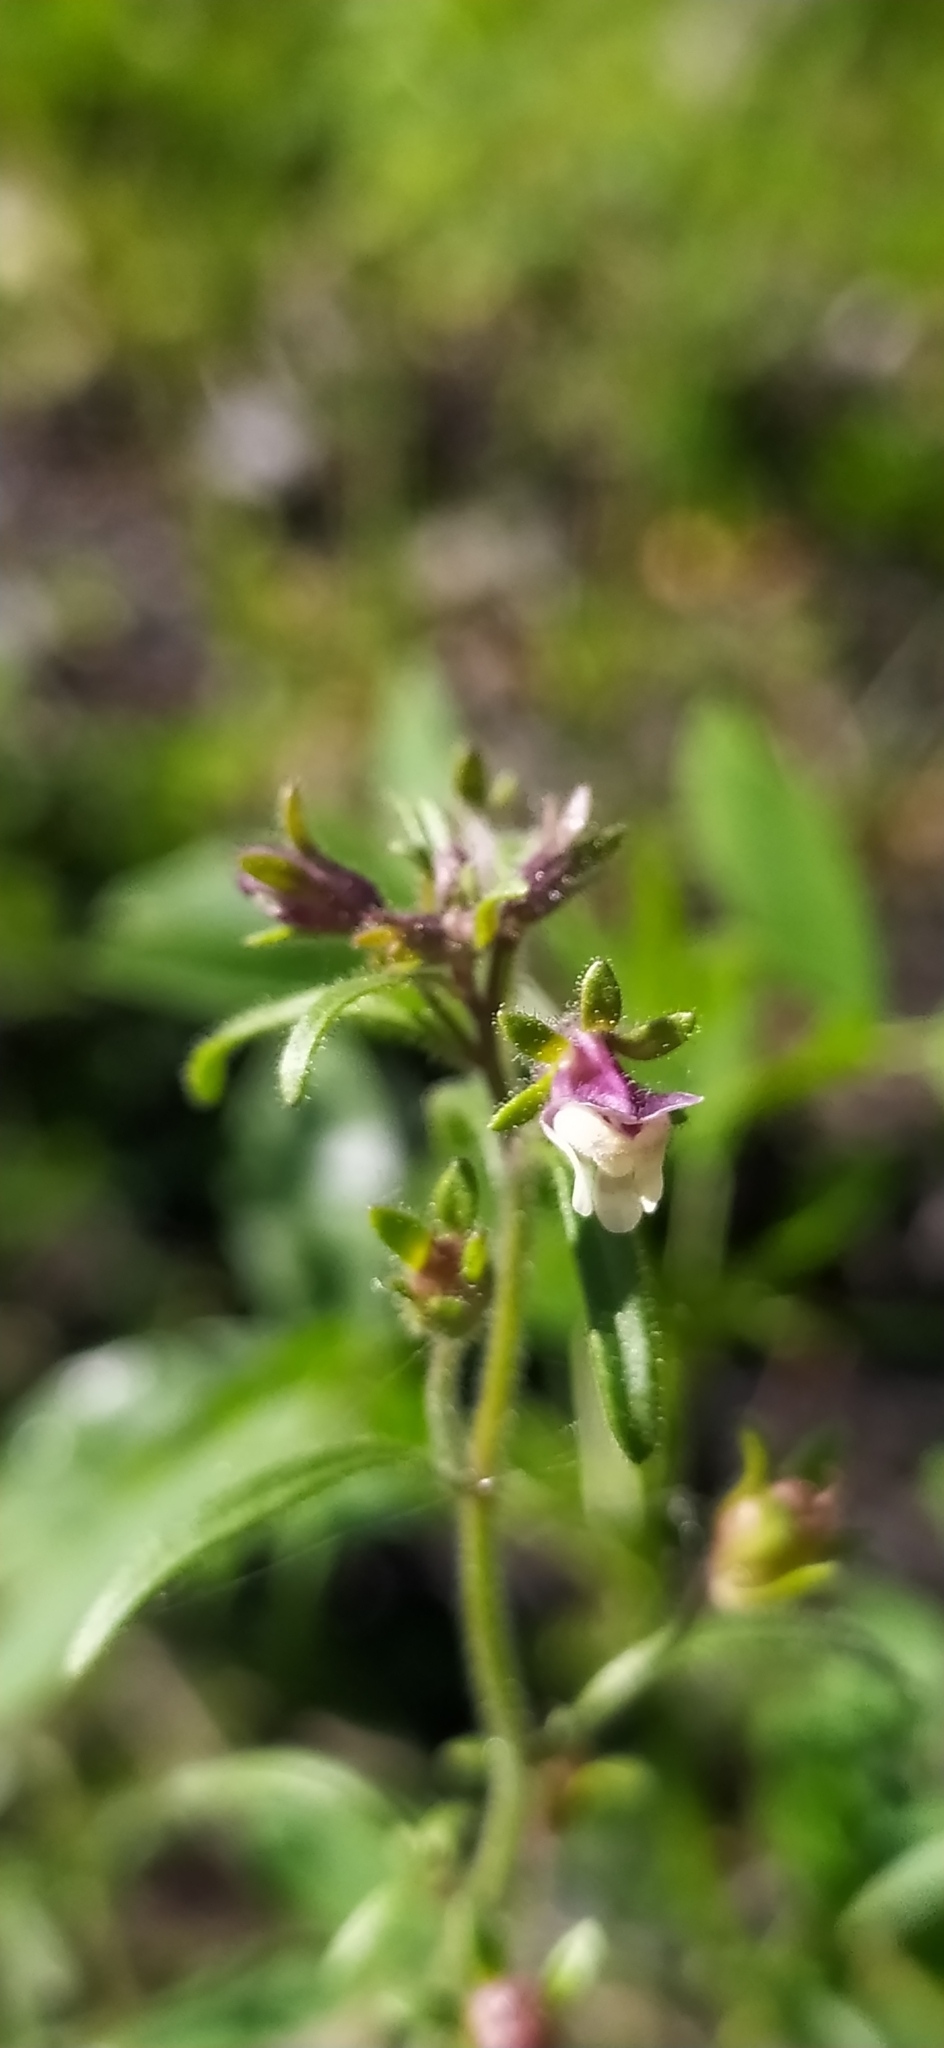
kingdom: Plantae
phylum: Tracheophyta
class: Magnoliopsida
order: Lamiales
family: Plantaginaceae
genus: Chaenorhinum
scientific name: Chaenorhinum minus
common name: Dwarf snapdragon
